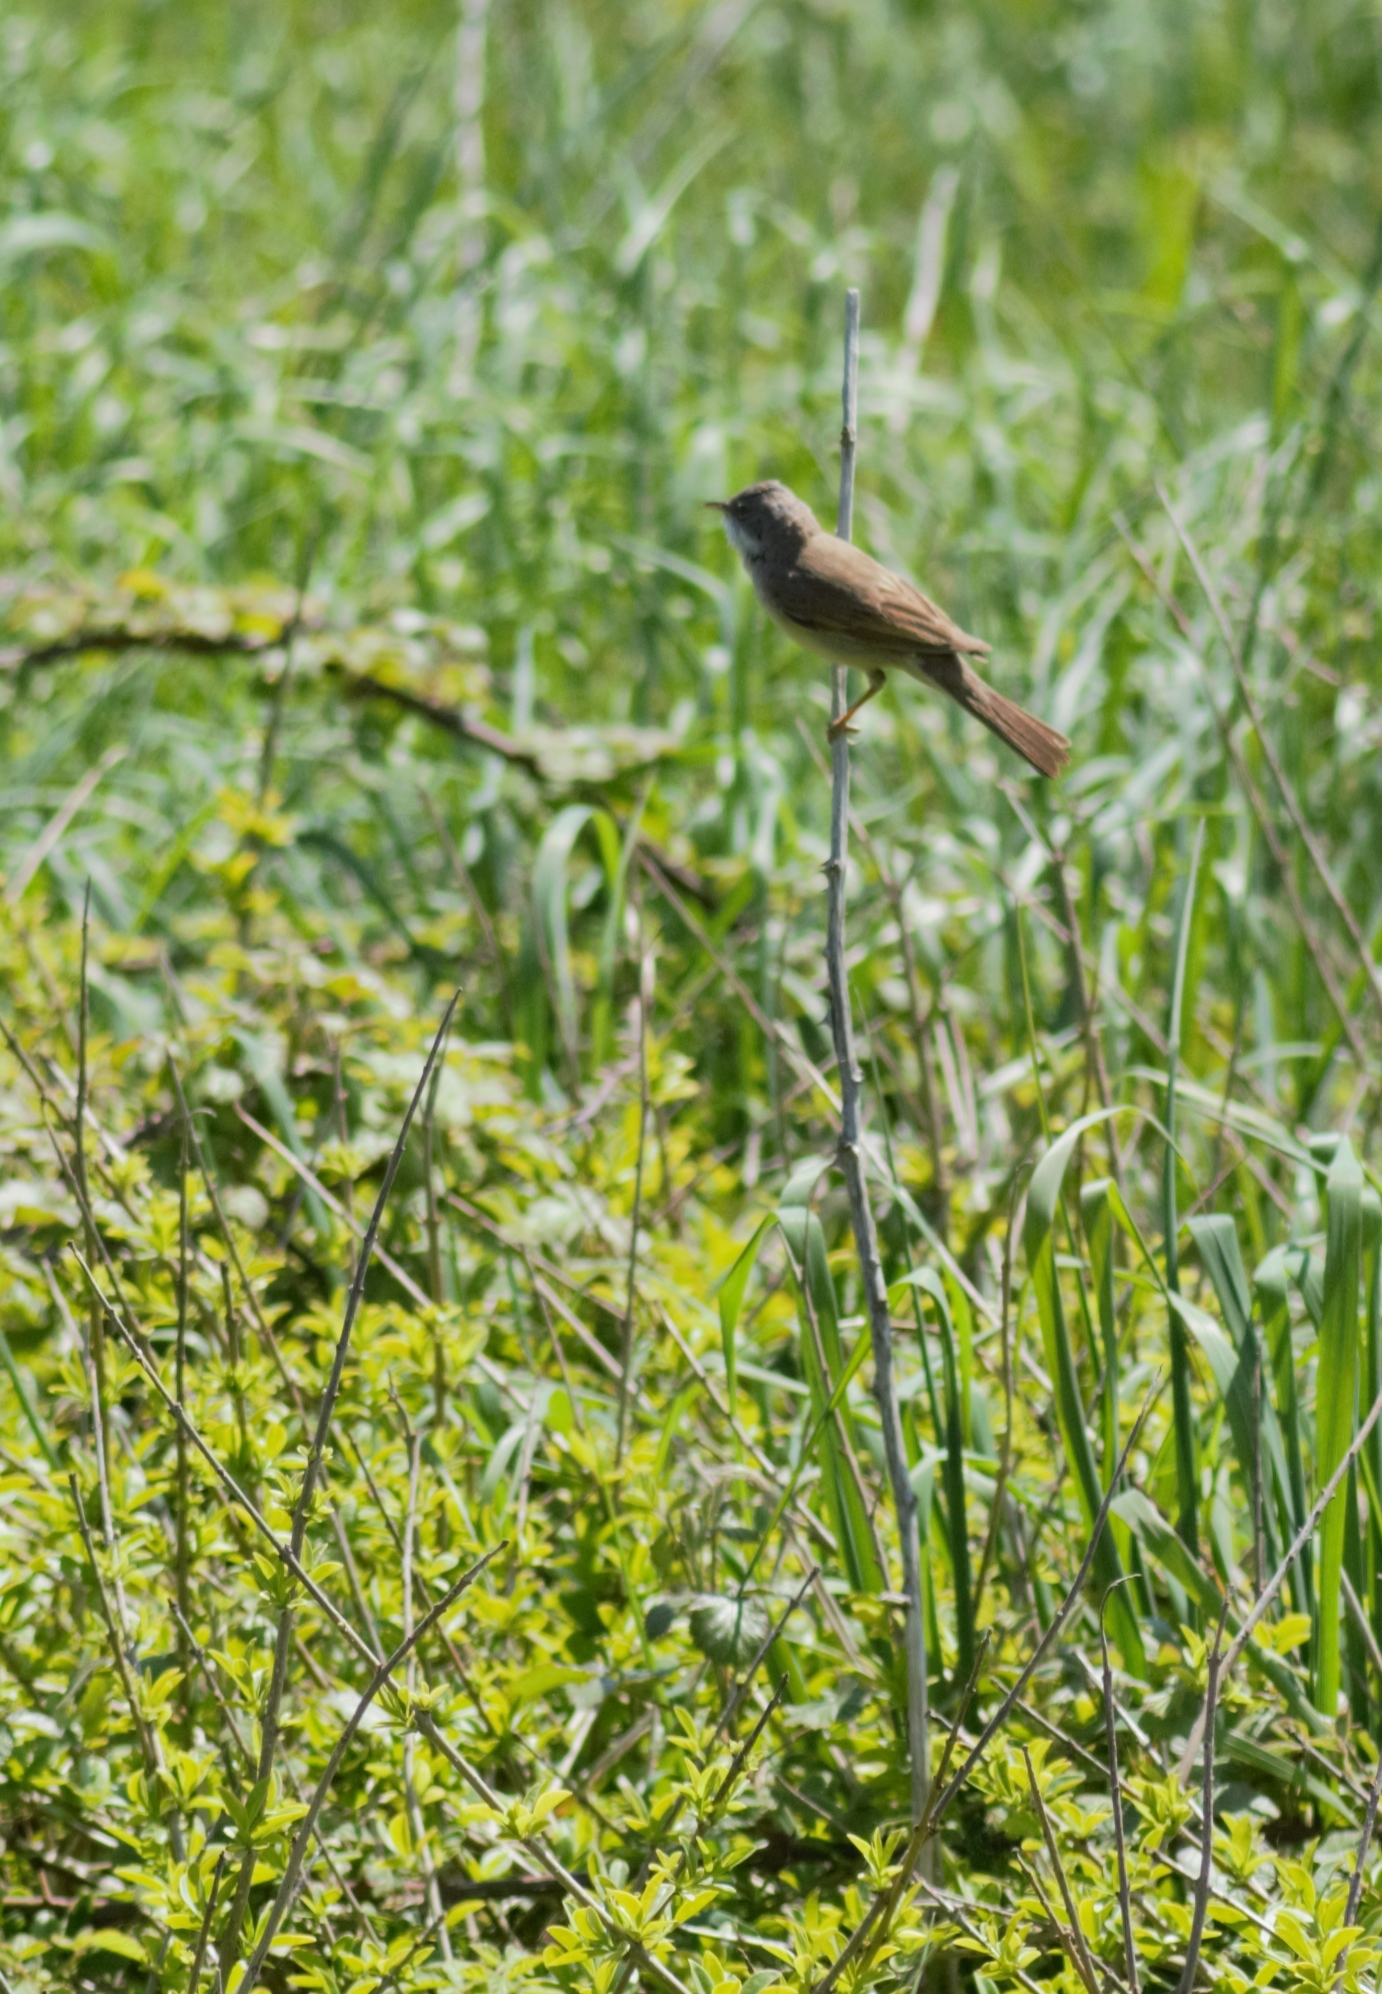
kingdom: Animalia
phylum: Chordata
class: Aves
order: Passeriformes
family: Sylviidae
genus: Sylvia
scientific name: Sylvia communis
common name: Common whitethroat
